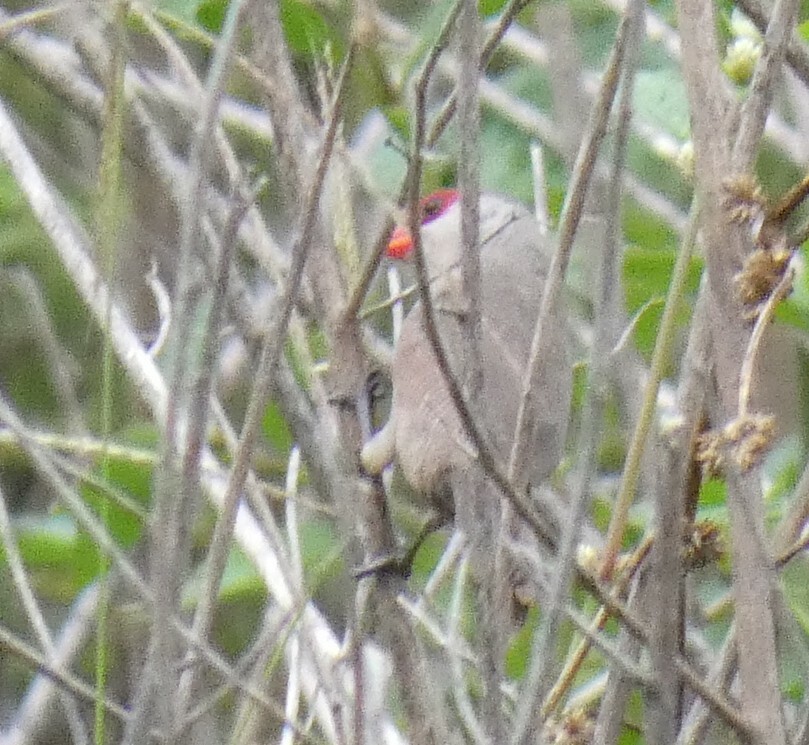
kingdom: Animalia
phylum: Chordata
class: Aves
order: Passeriformes
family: Estrildidae
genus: Estrilda
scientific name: Estrilda astrild
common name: Common waxbill
